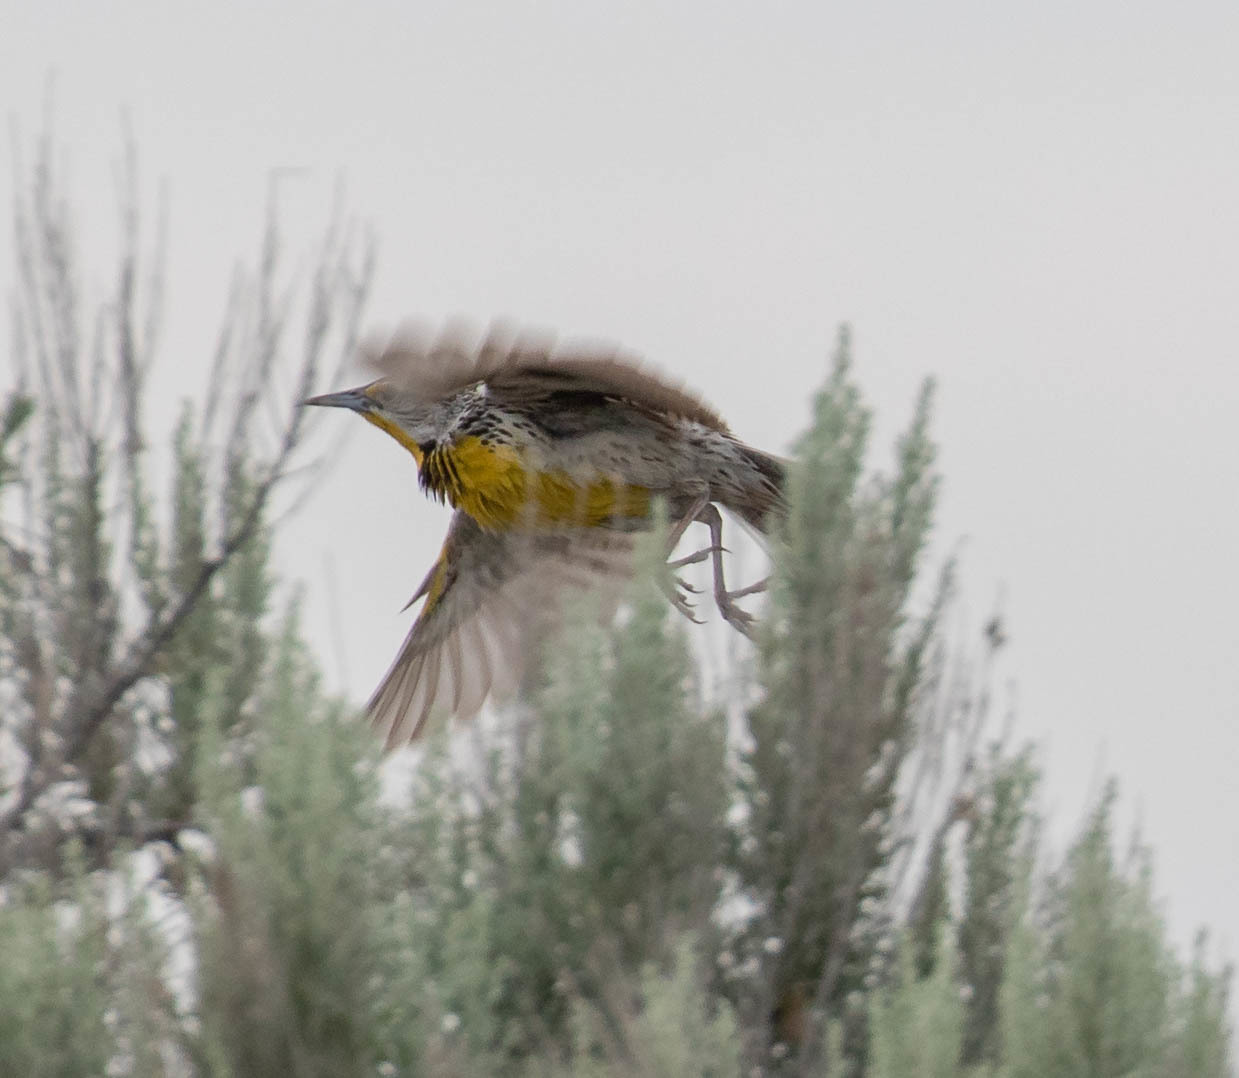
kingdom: Animalia
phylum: Chordata
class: Aves
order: Passeriformes
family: Icteridae
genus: Sturnella
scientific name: Sturnella neglecta
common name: Western meadowlark
